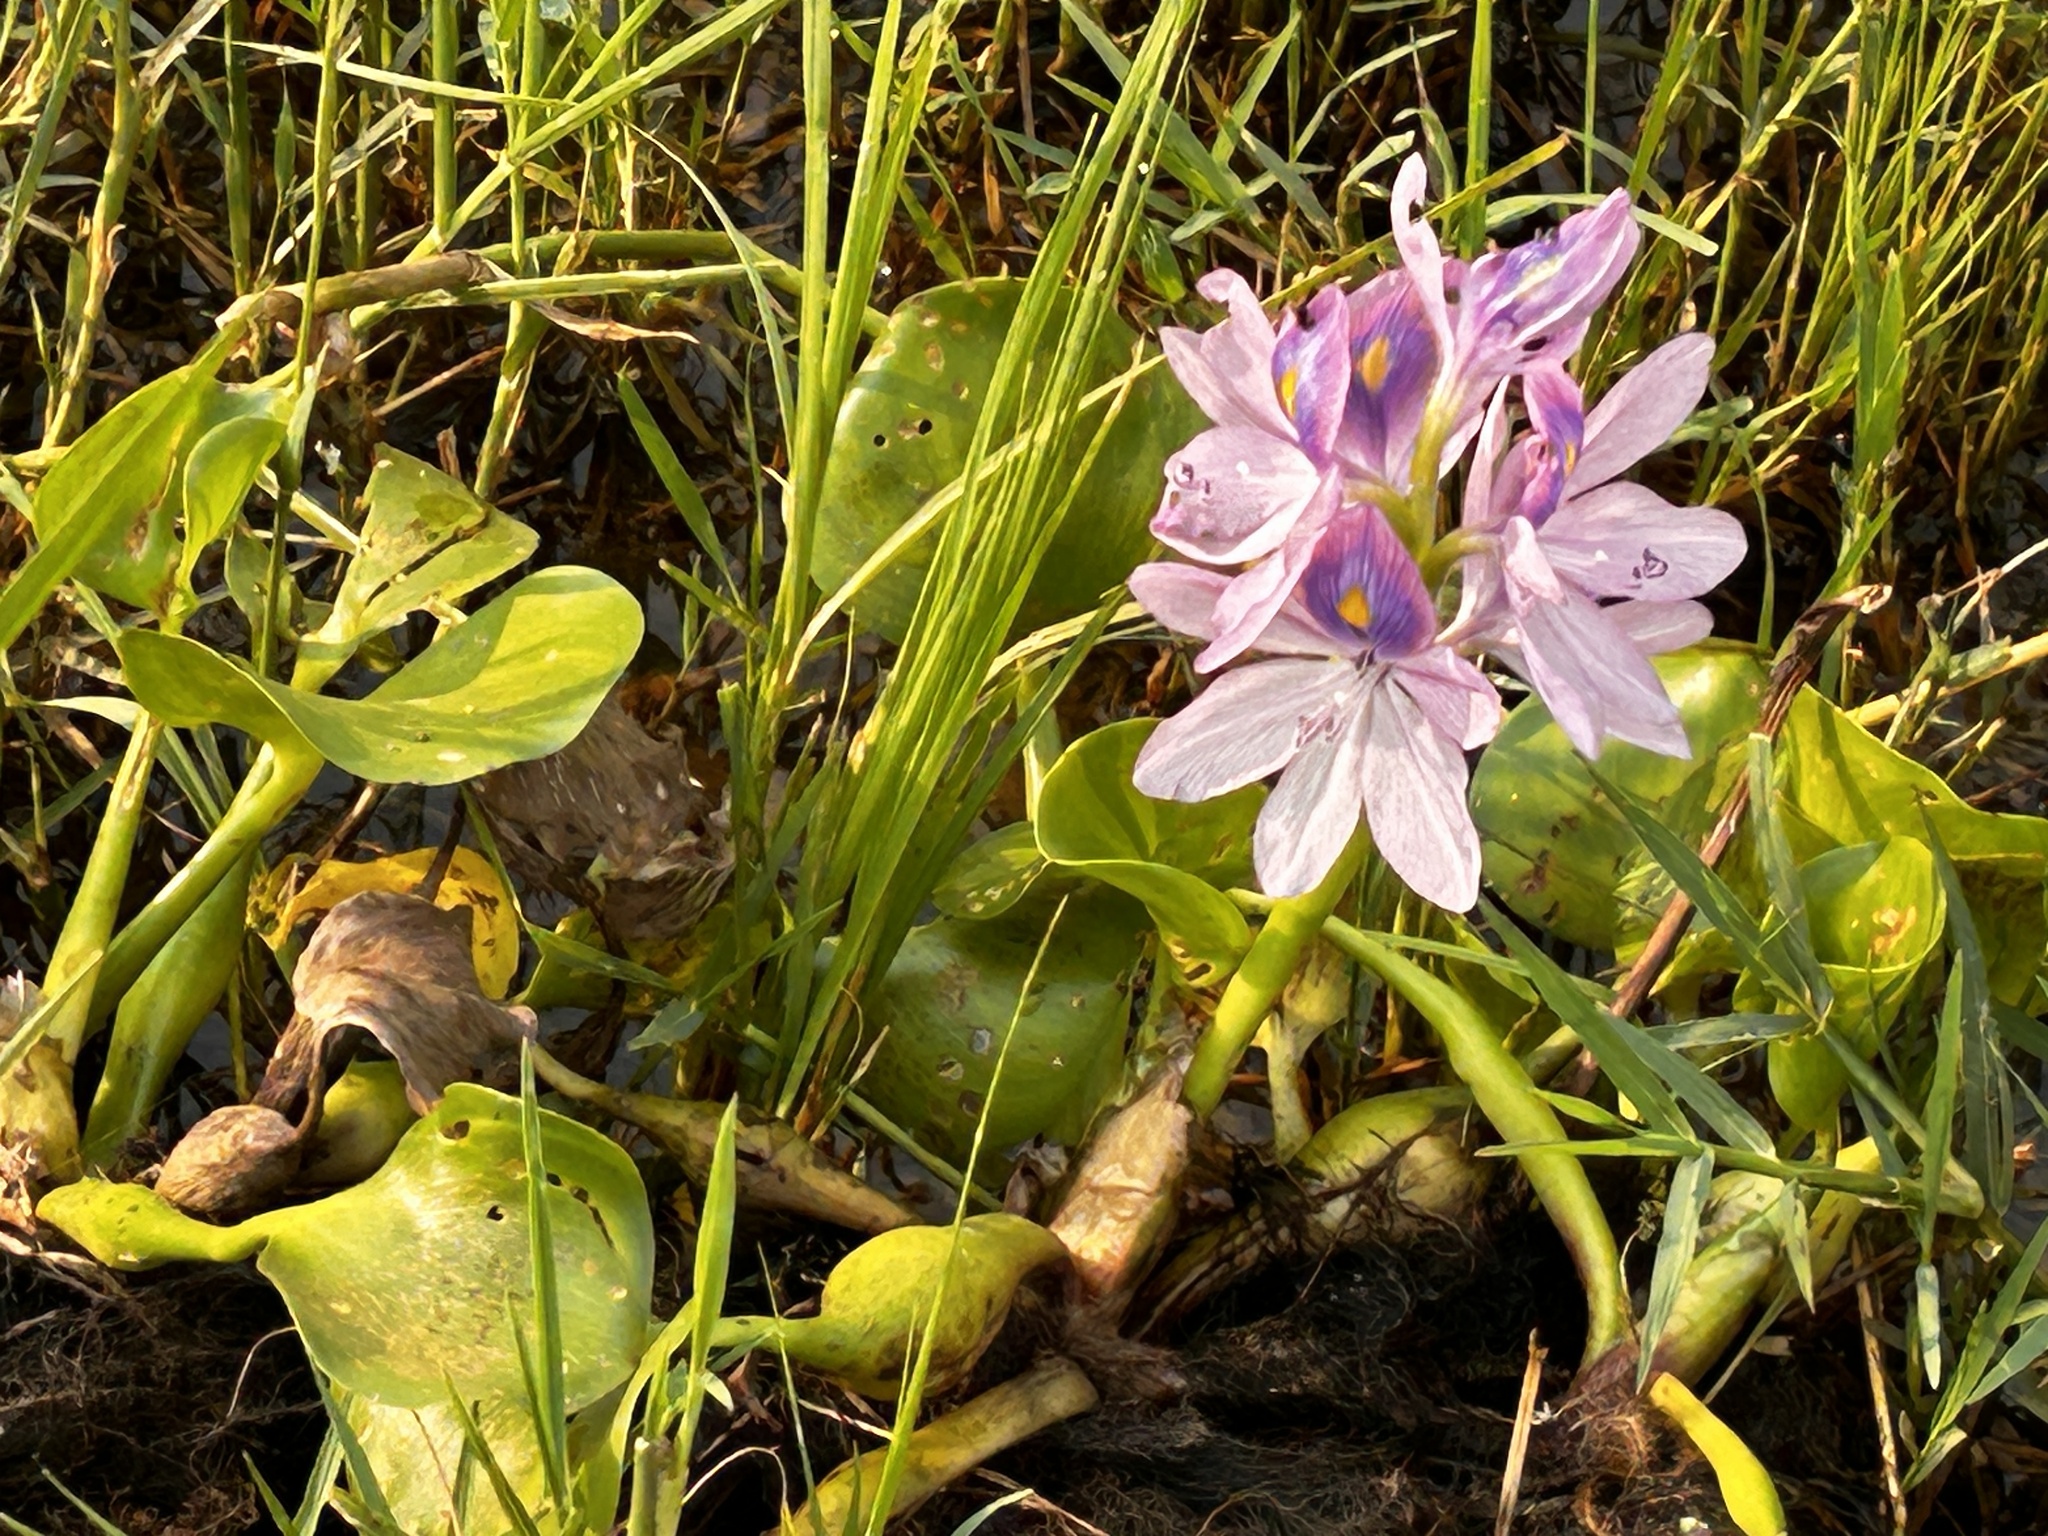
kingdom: Plantae
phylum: Tracheophyta
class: Liliopsida
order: Commelinales
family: Pontederiaceae
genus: Pontederia
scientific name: Pontederia crassipes
